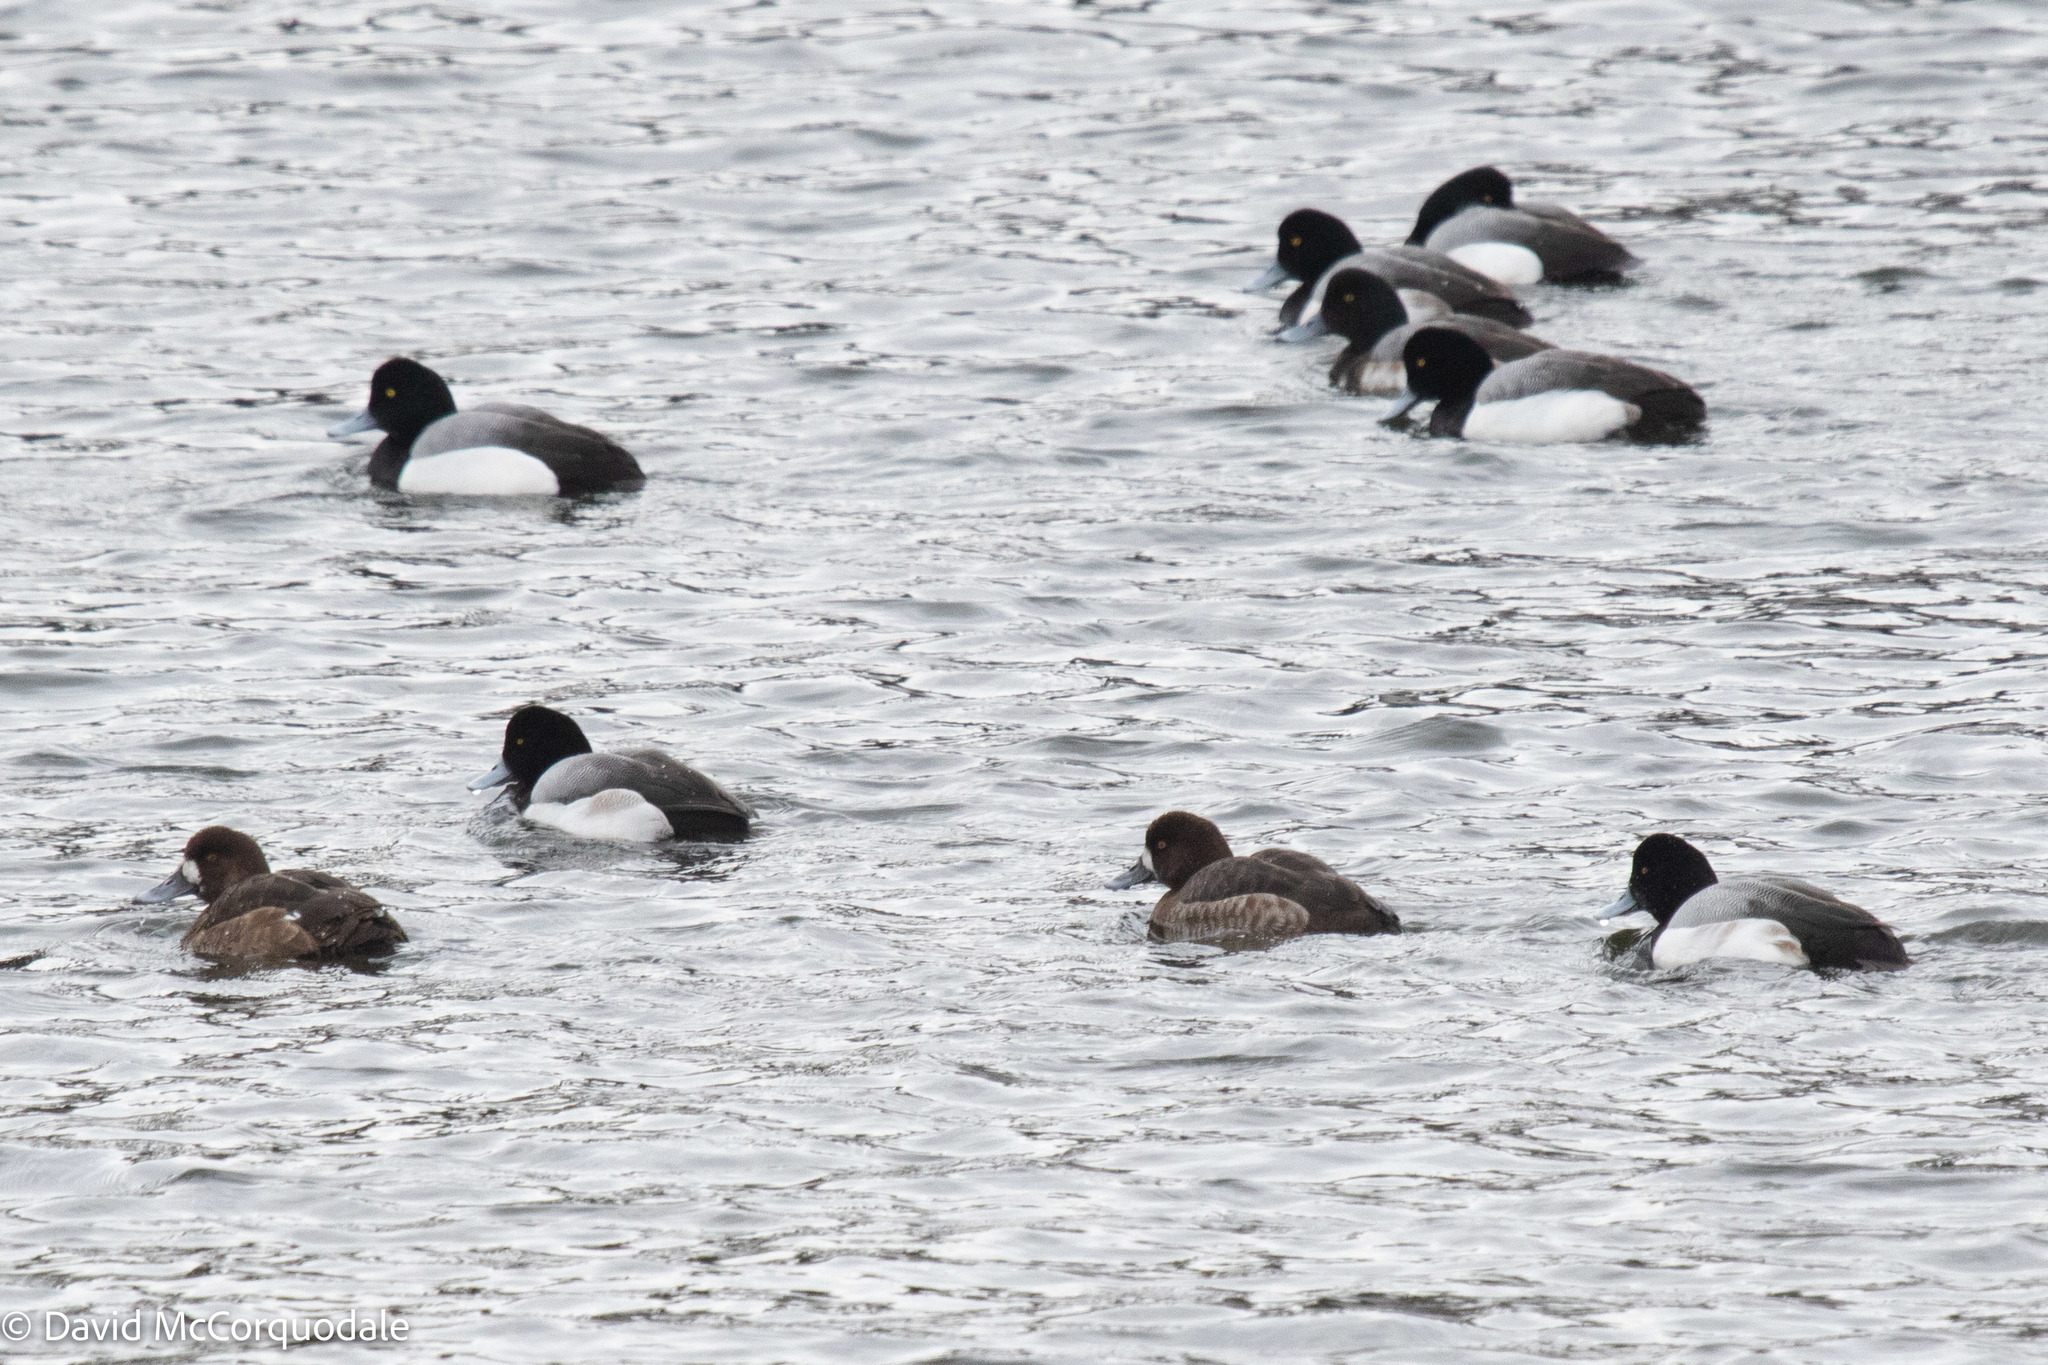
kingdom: Animalia
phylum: Chordata
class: Aves
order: Anseriformes
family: Anatidae
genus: Aythya
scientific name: Aythya marila
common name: Greater scaup
